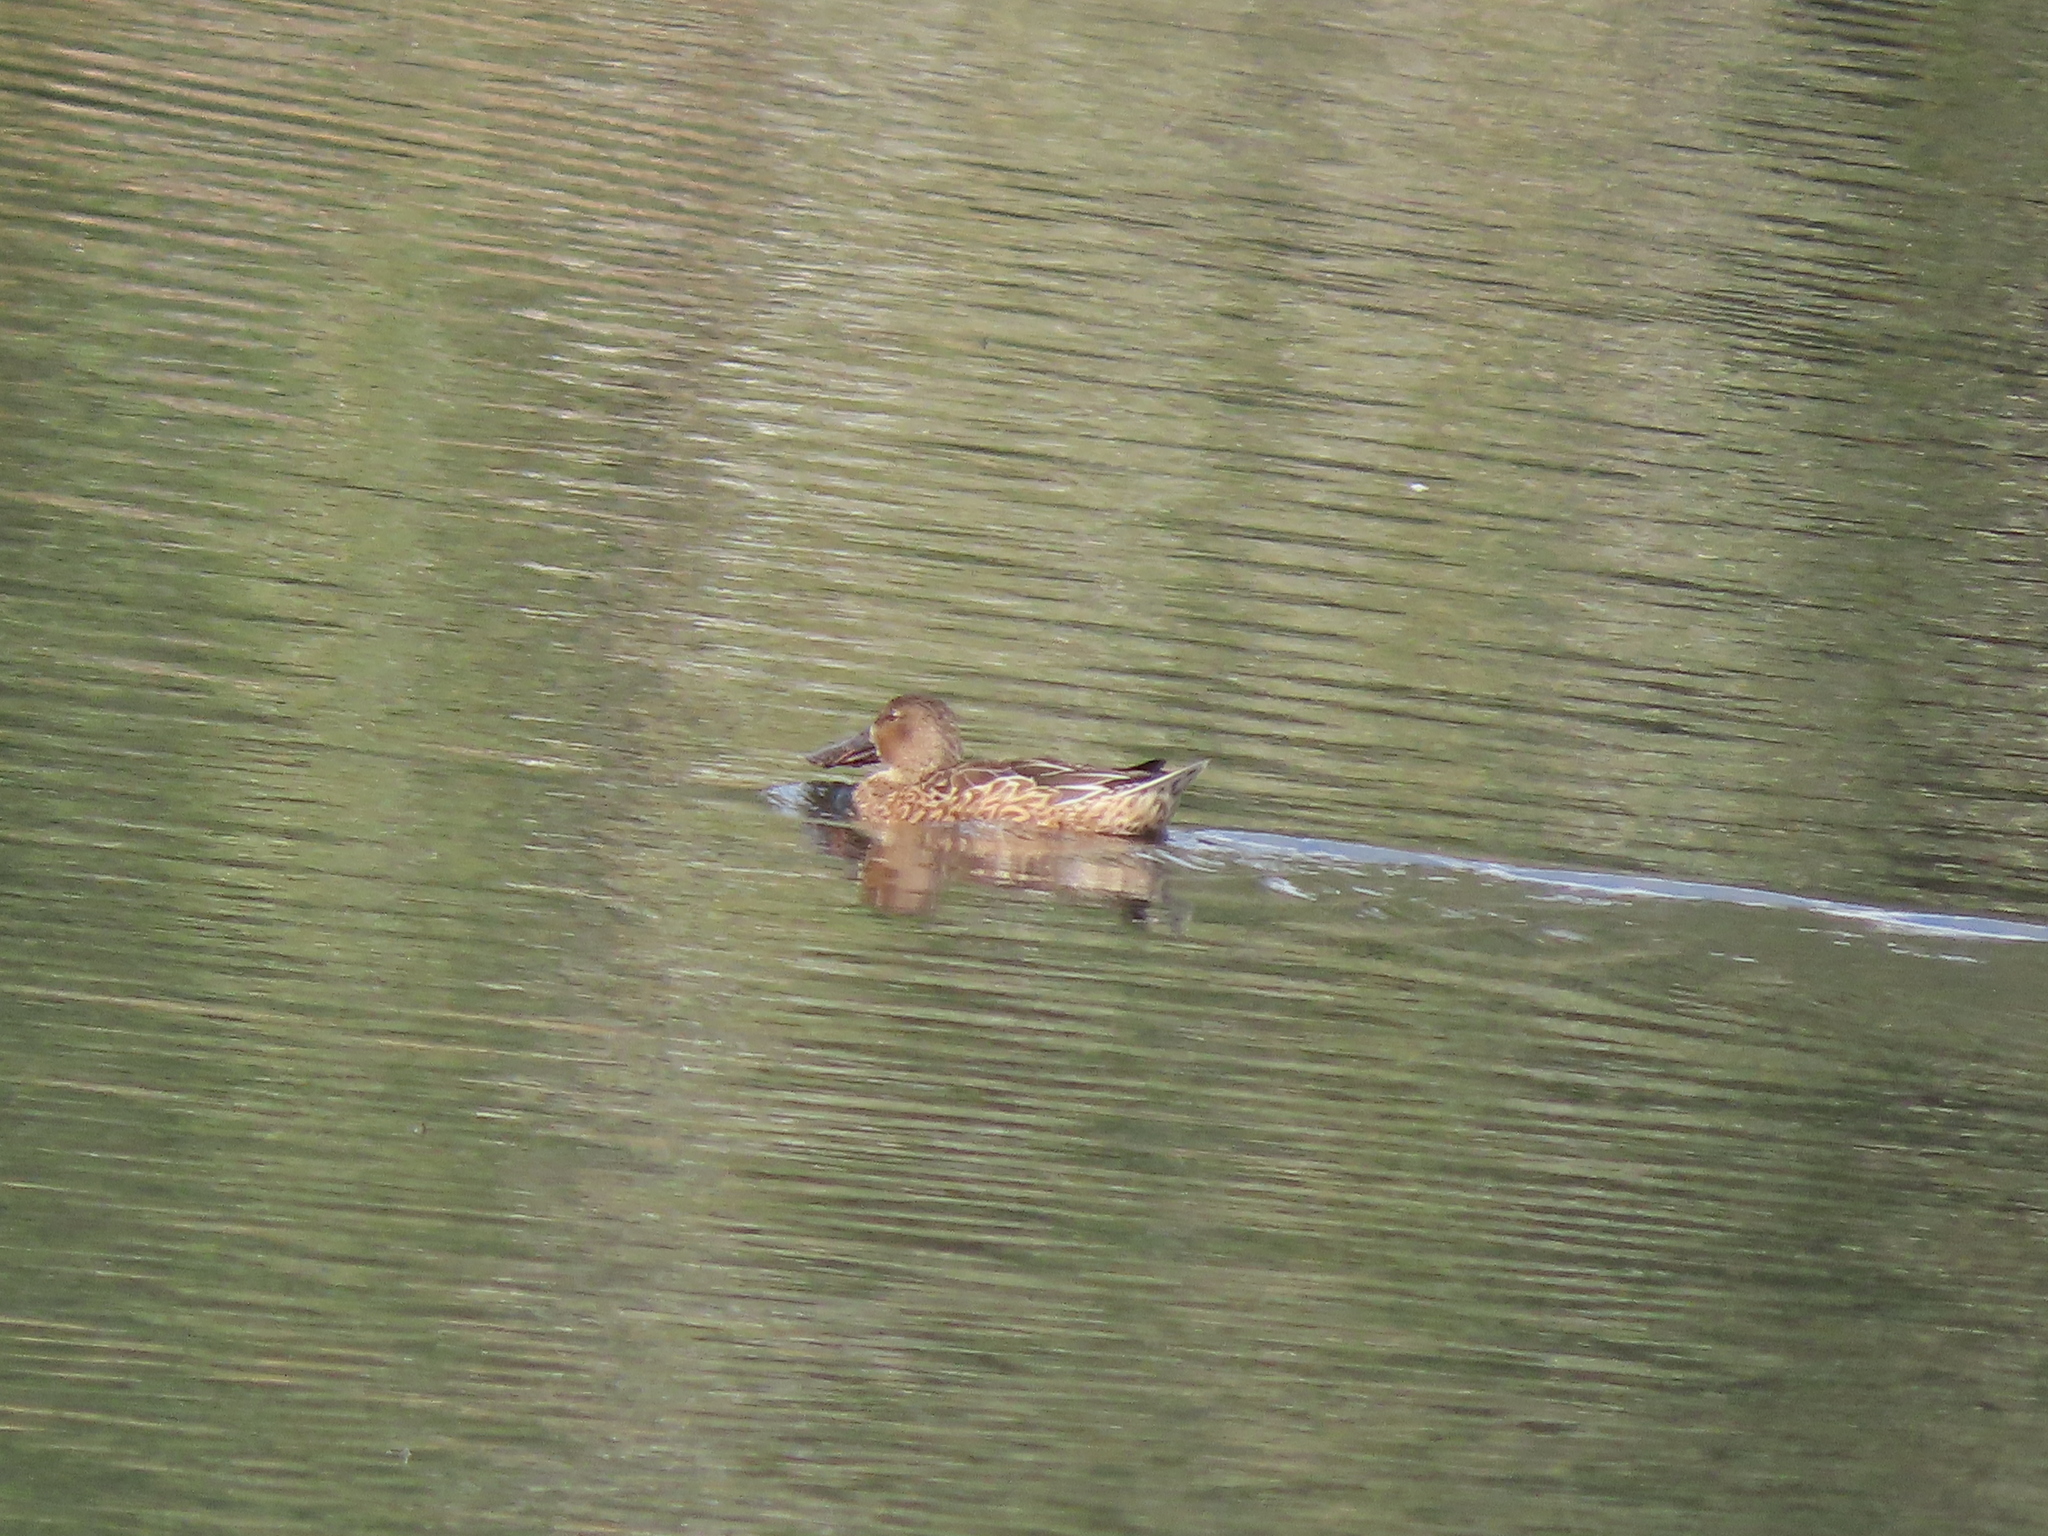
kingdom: Animalia
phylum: Chordata
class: Aves
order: Anseriformes
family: Anatidae
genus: Spatula
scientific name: Spatula clypeata
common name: Northern shoveler
